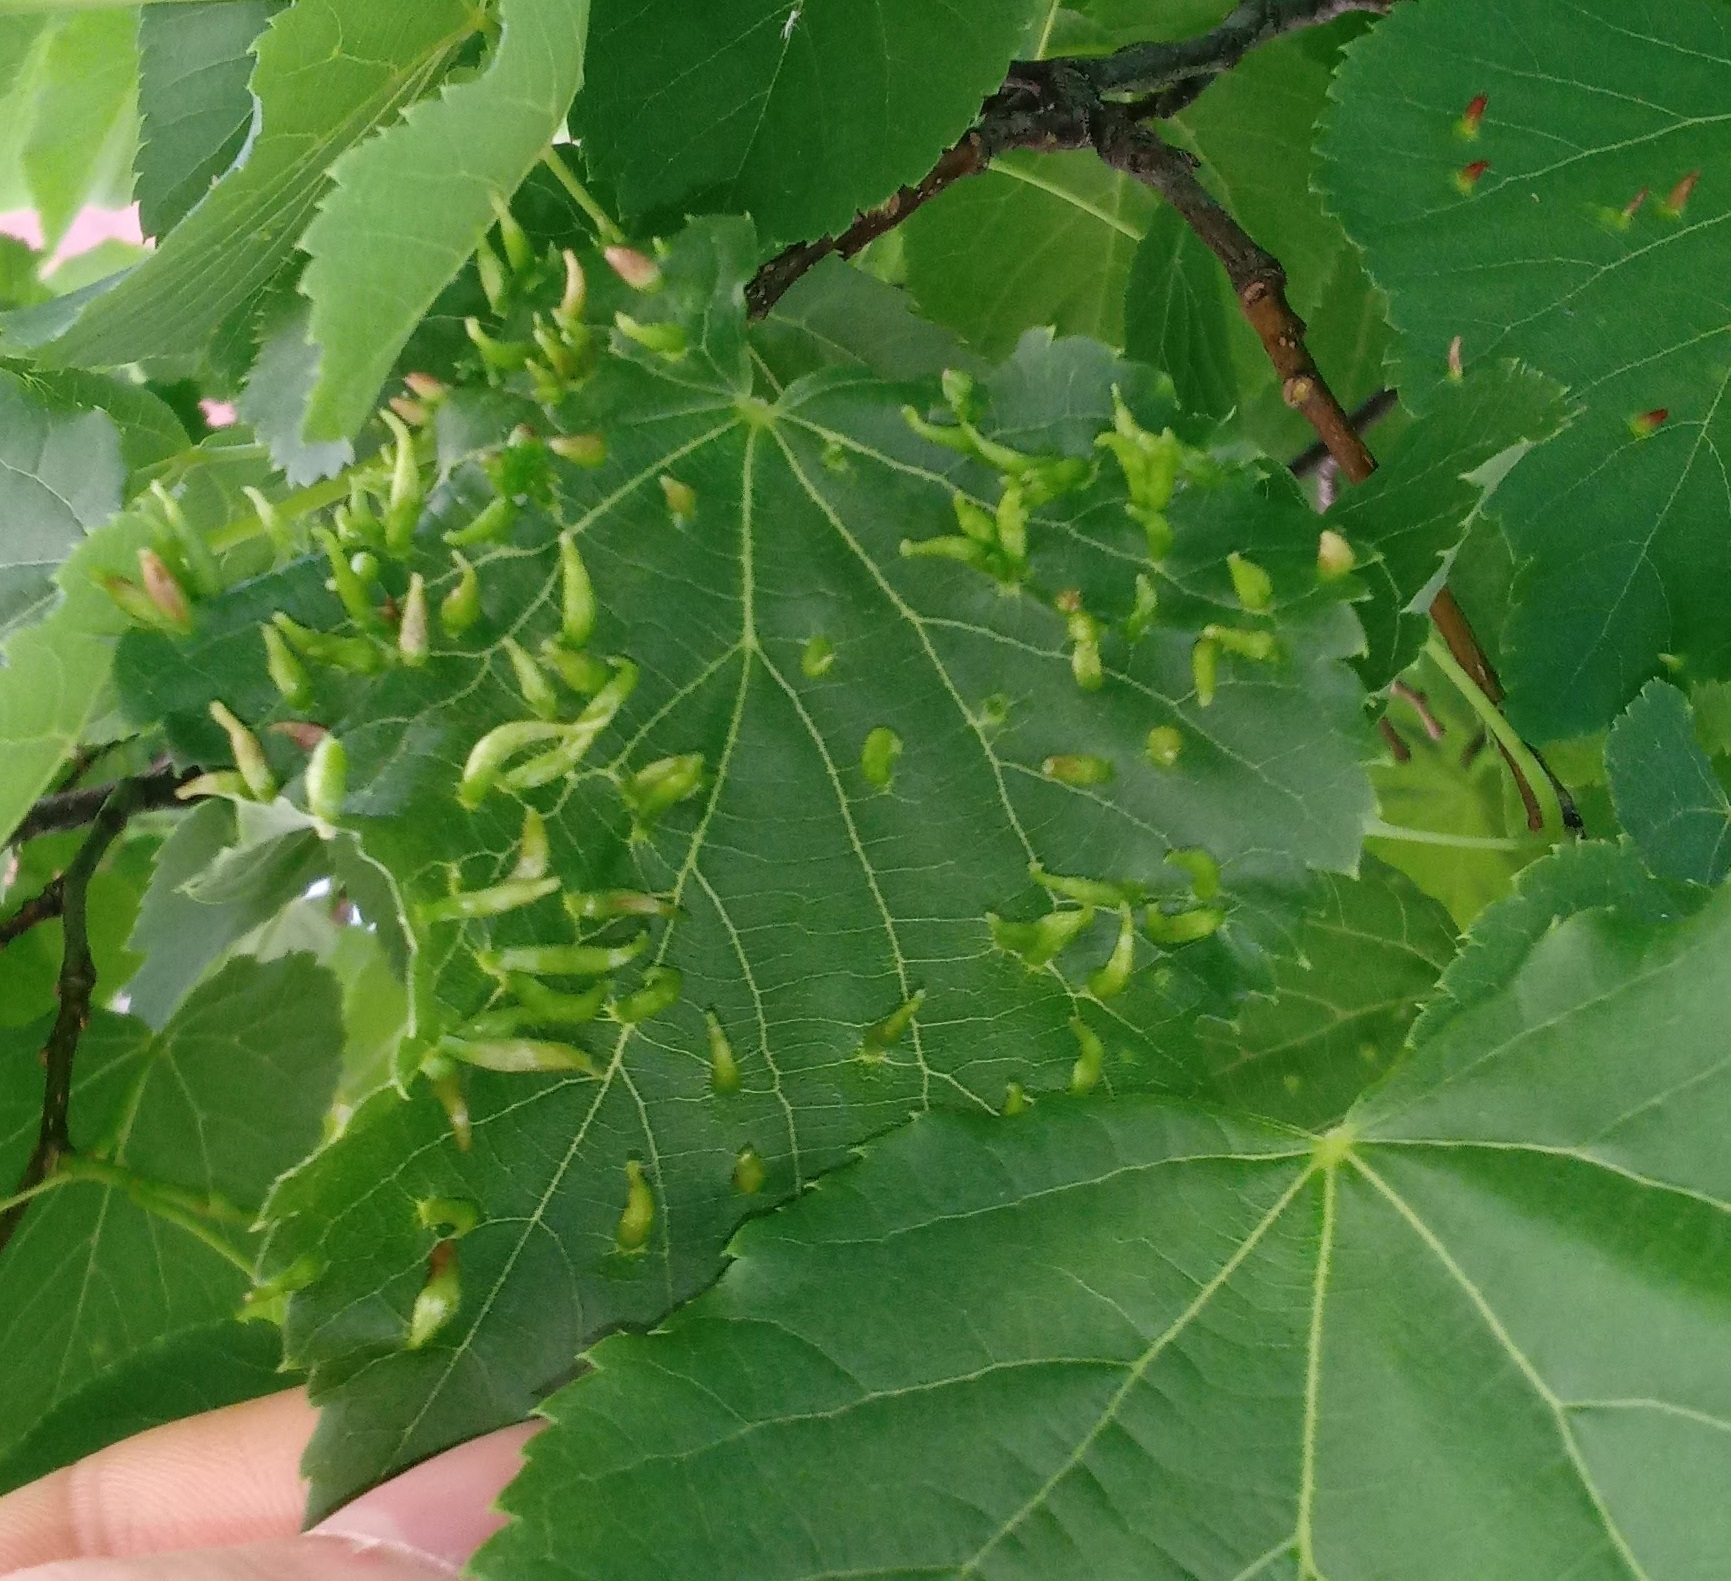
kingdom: Animalia
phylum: Arthropoda
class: Arachnida
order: Trombidiformes
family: Eriophyidae
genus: Eriophyes
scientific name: Eriophyes tiliae
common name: Red nail gall mite
